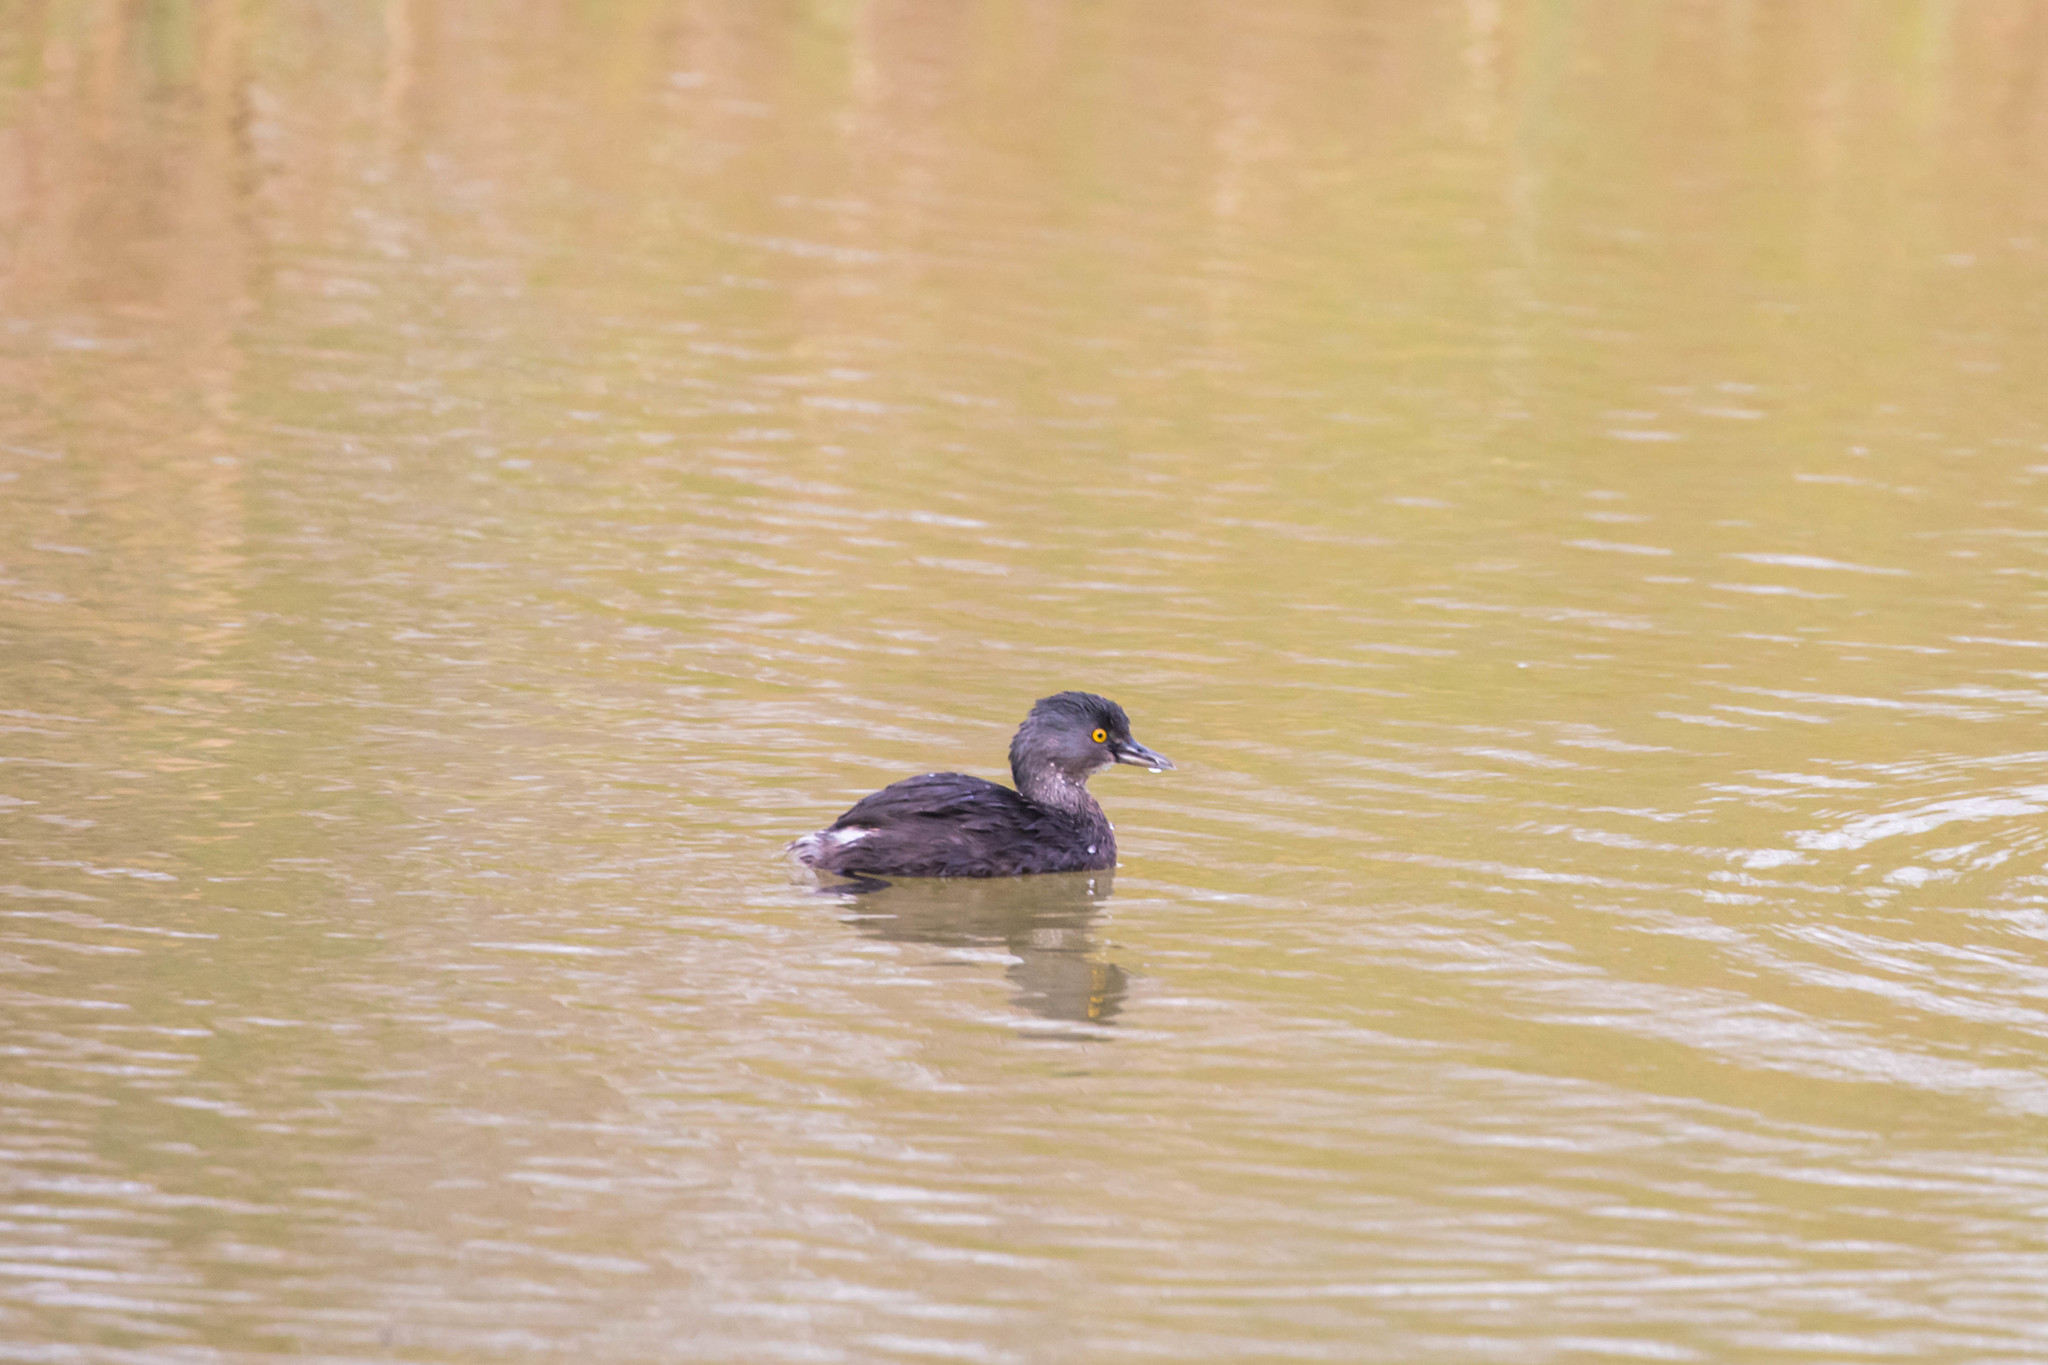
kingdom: Animalia
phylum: Chordata
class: Aves
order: Podicipediformes
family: Podicipedidae
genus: Tachybaptus
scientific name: Tachybaptus dominicus
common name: Least grebe
